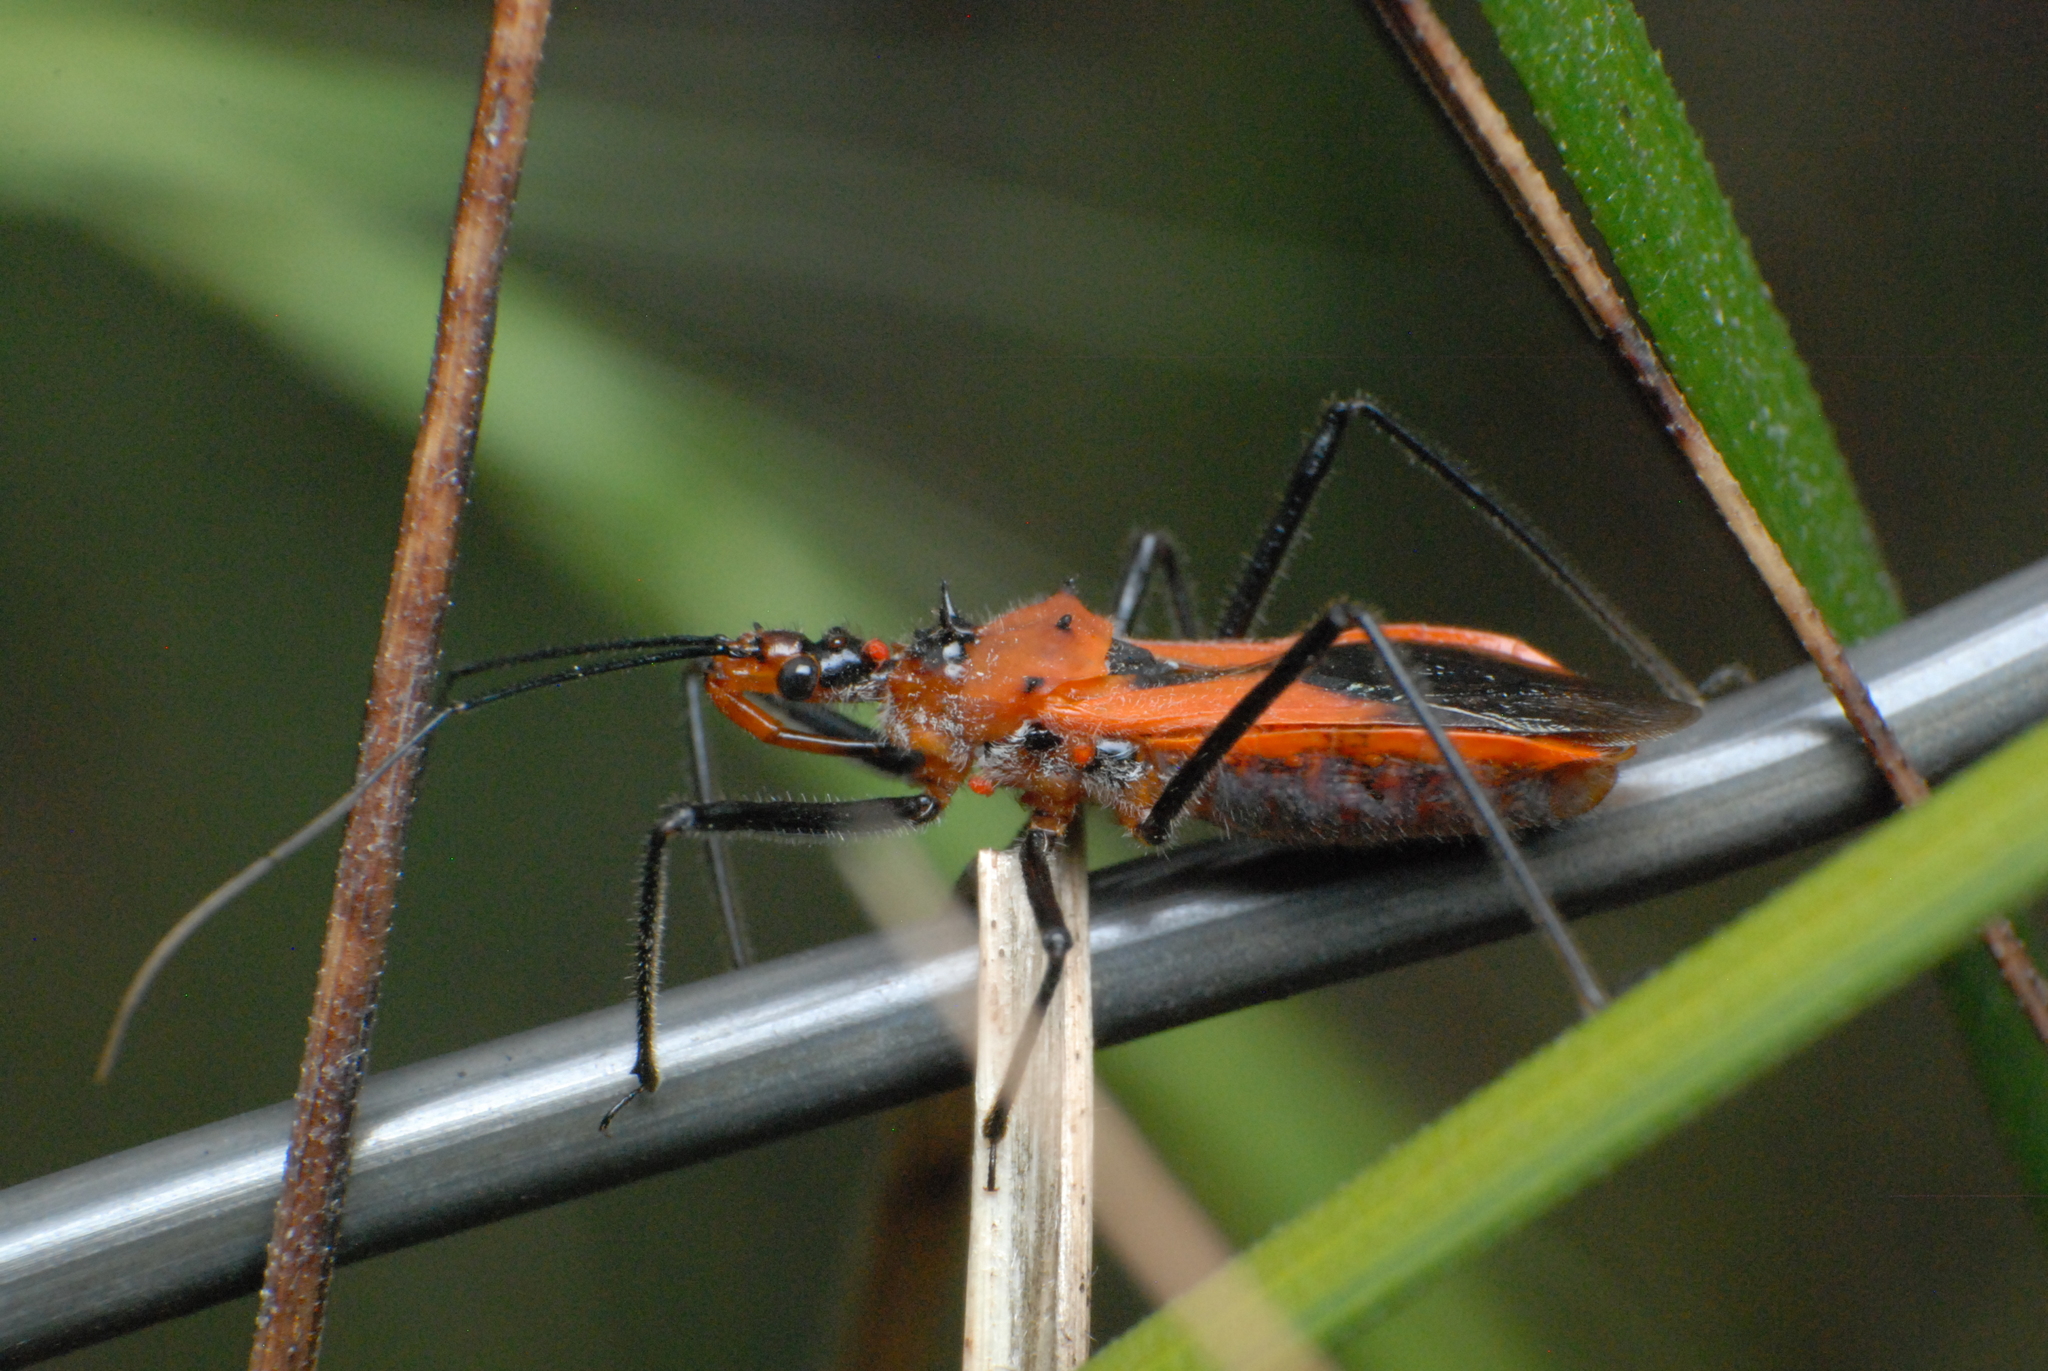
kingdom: Animalia
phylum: Arthropoda
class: Insecta
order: Hemiptera
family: Reduviidae
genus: Gminatus
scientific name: Gminatus australis
